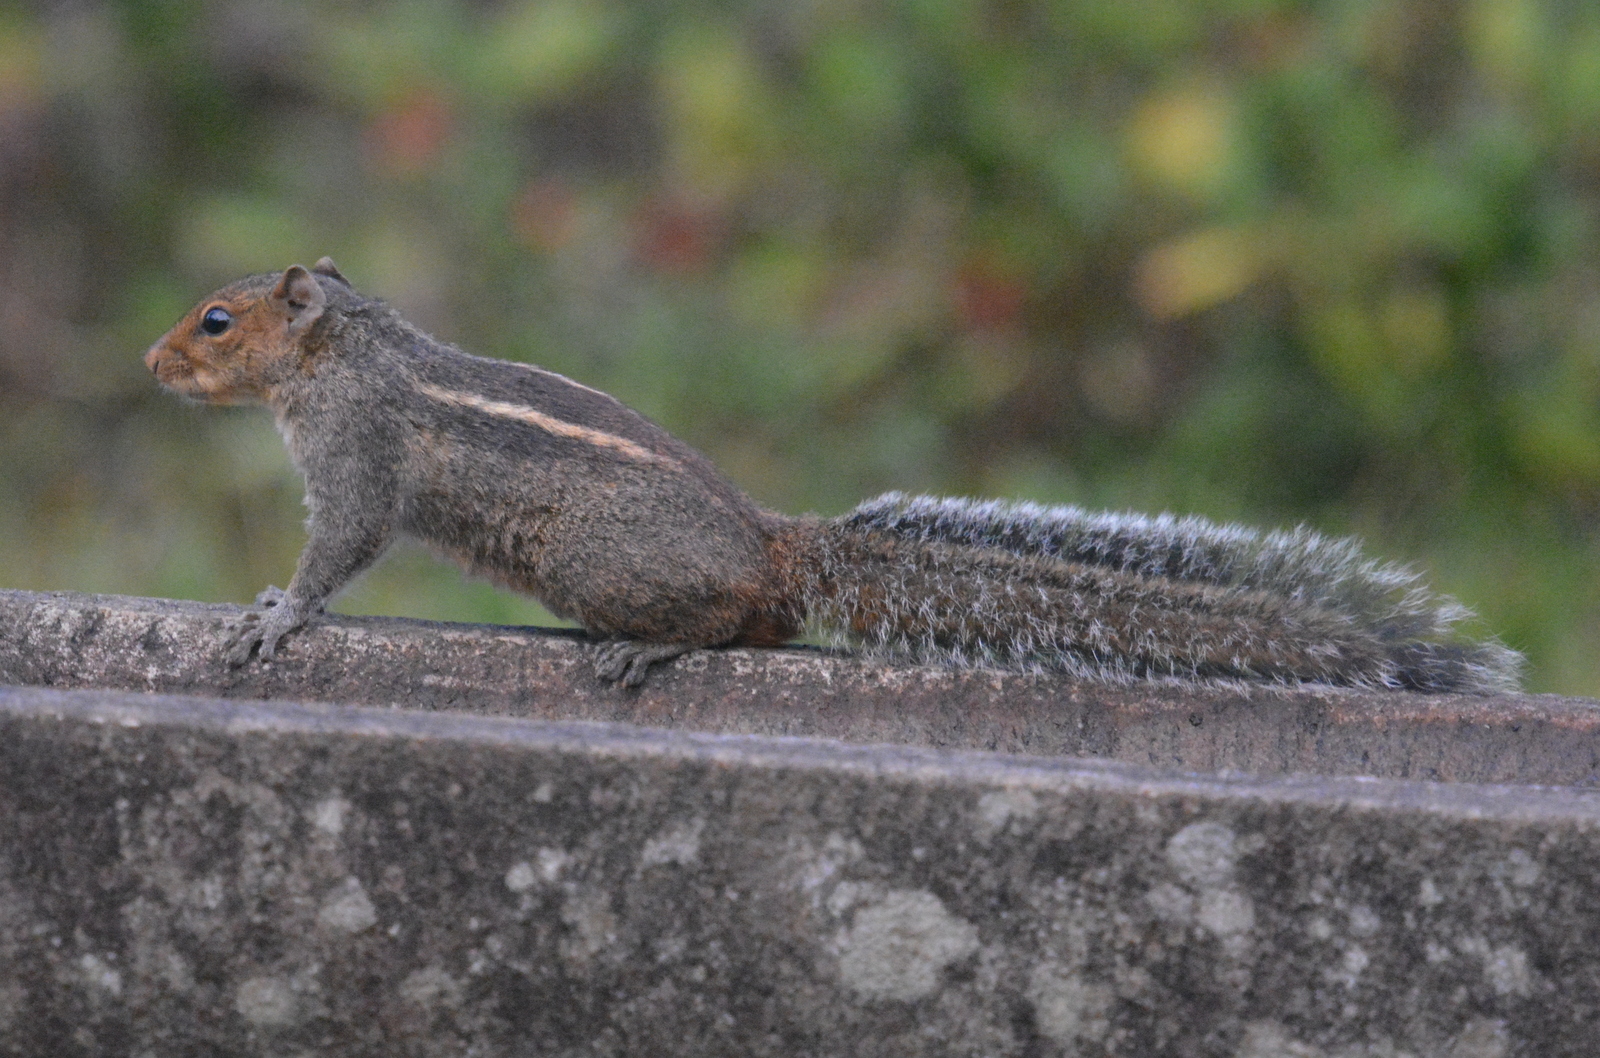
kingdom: Animalia
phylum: Chordata
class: Mammalia
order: Rodentia
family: Sciuridae
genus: Funambulus
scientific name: Funambulus tristriatus
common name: Jungle palm squirrel
